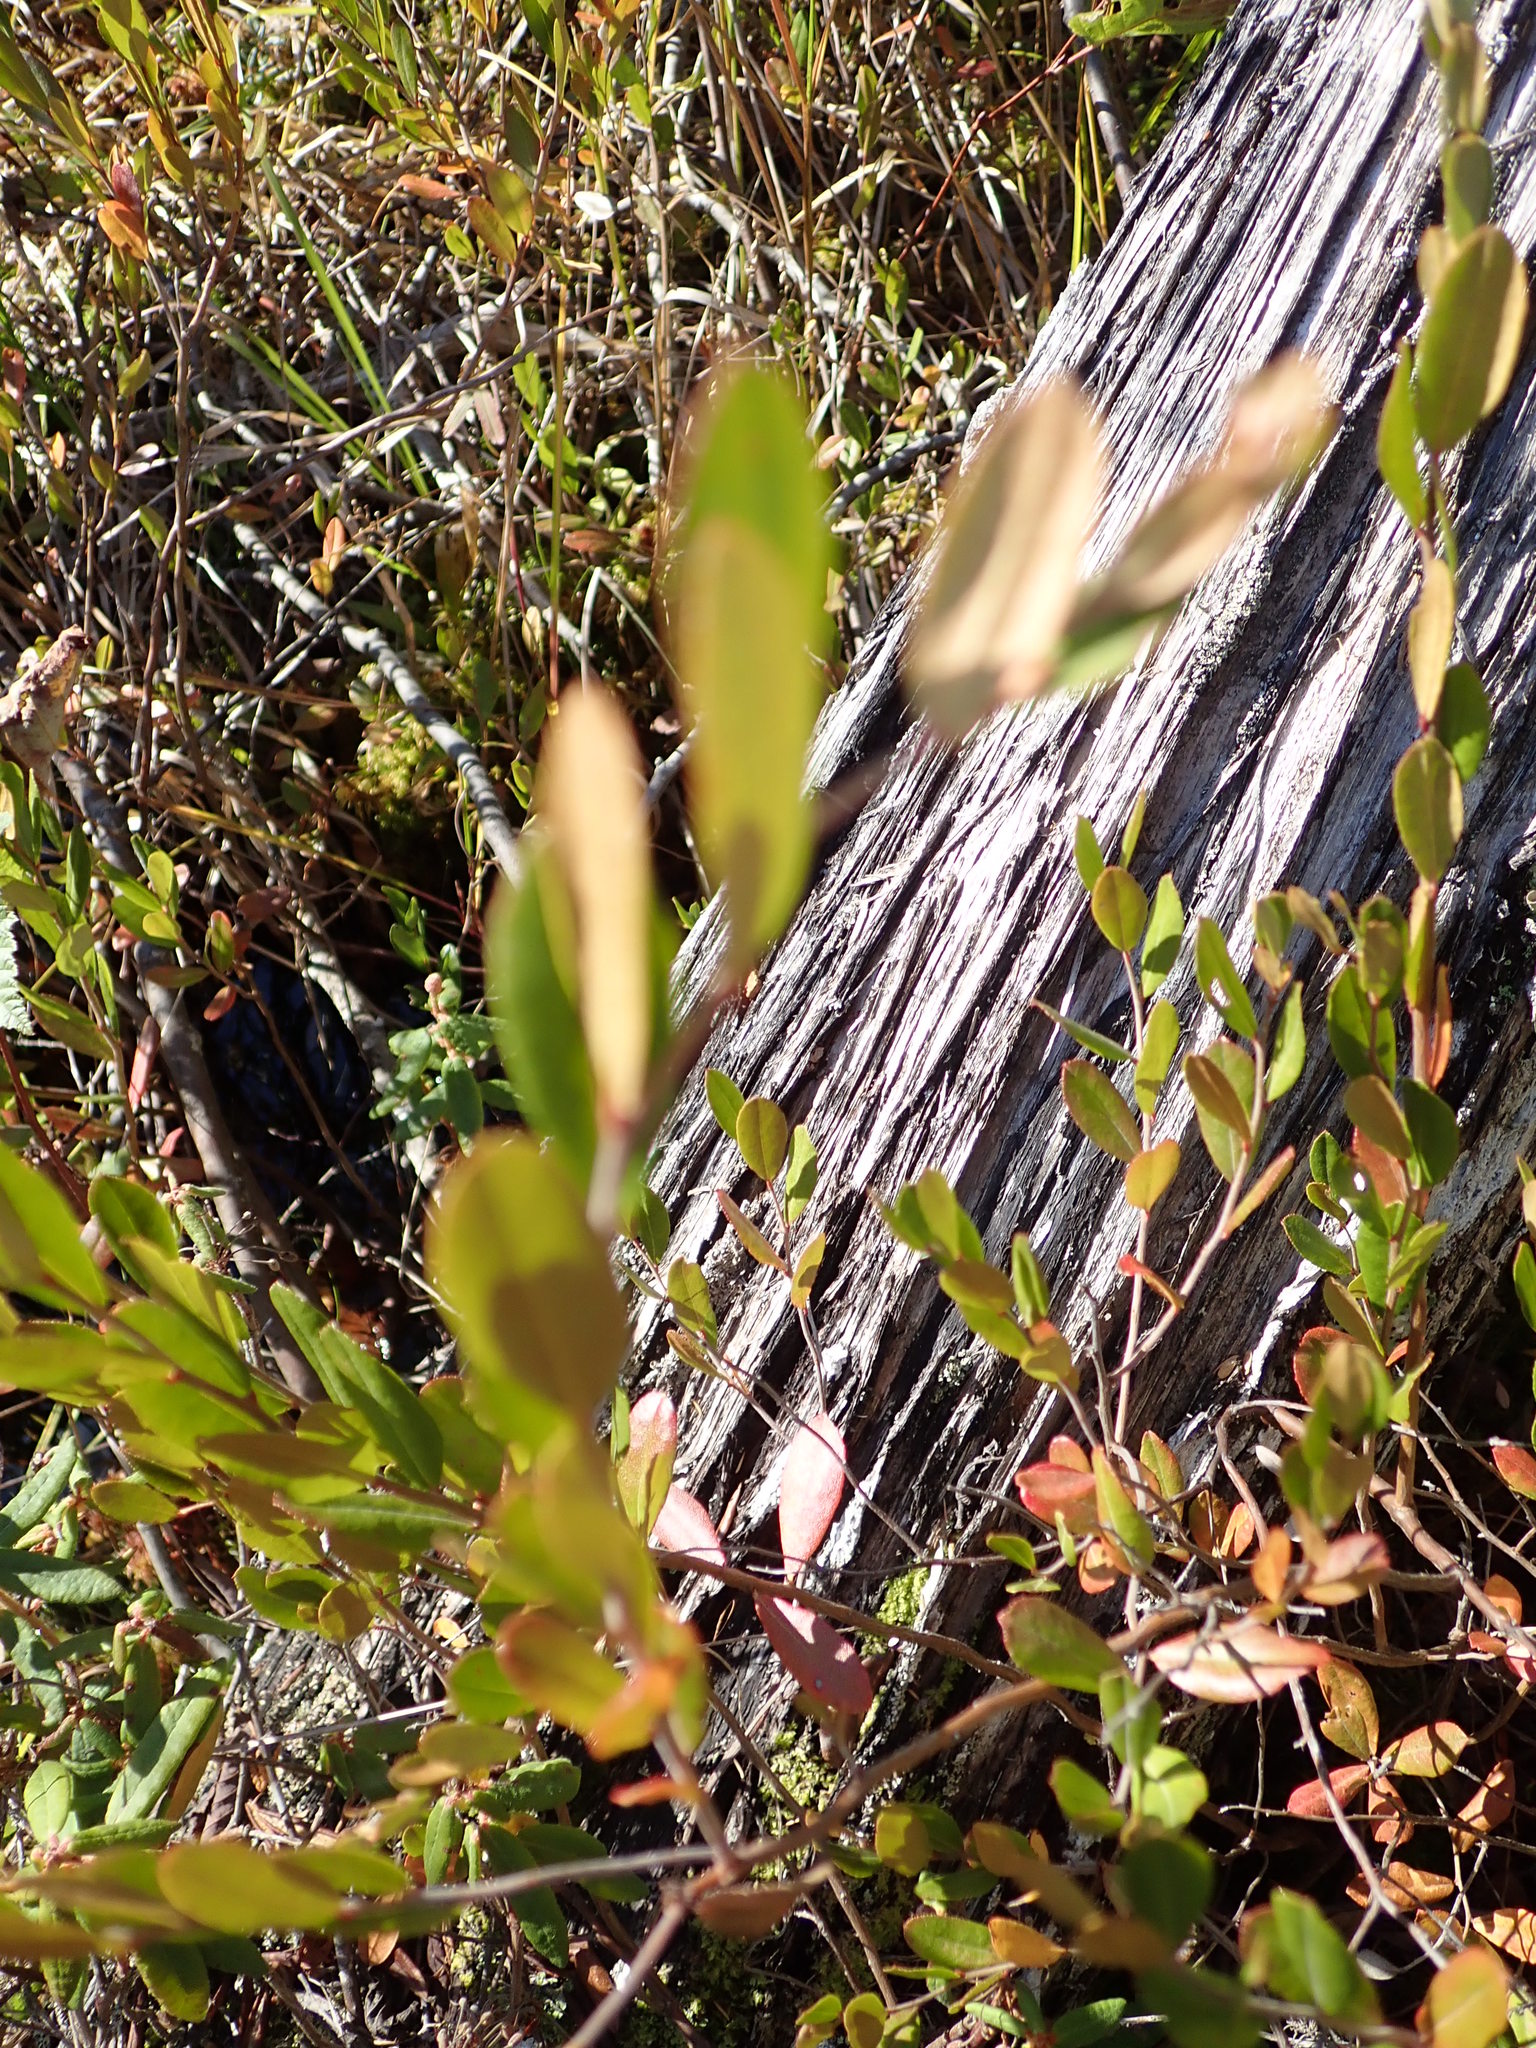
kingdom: Plantae
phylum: Tracheophyta
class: Magnoliopsida
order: Ericales
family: Ericaceae
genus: Chamaedaphne
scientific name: Chamaedaphne calyculata
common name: Leatherleaf
